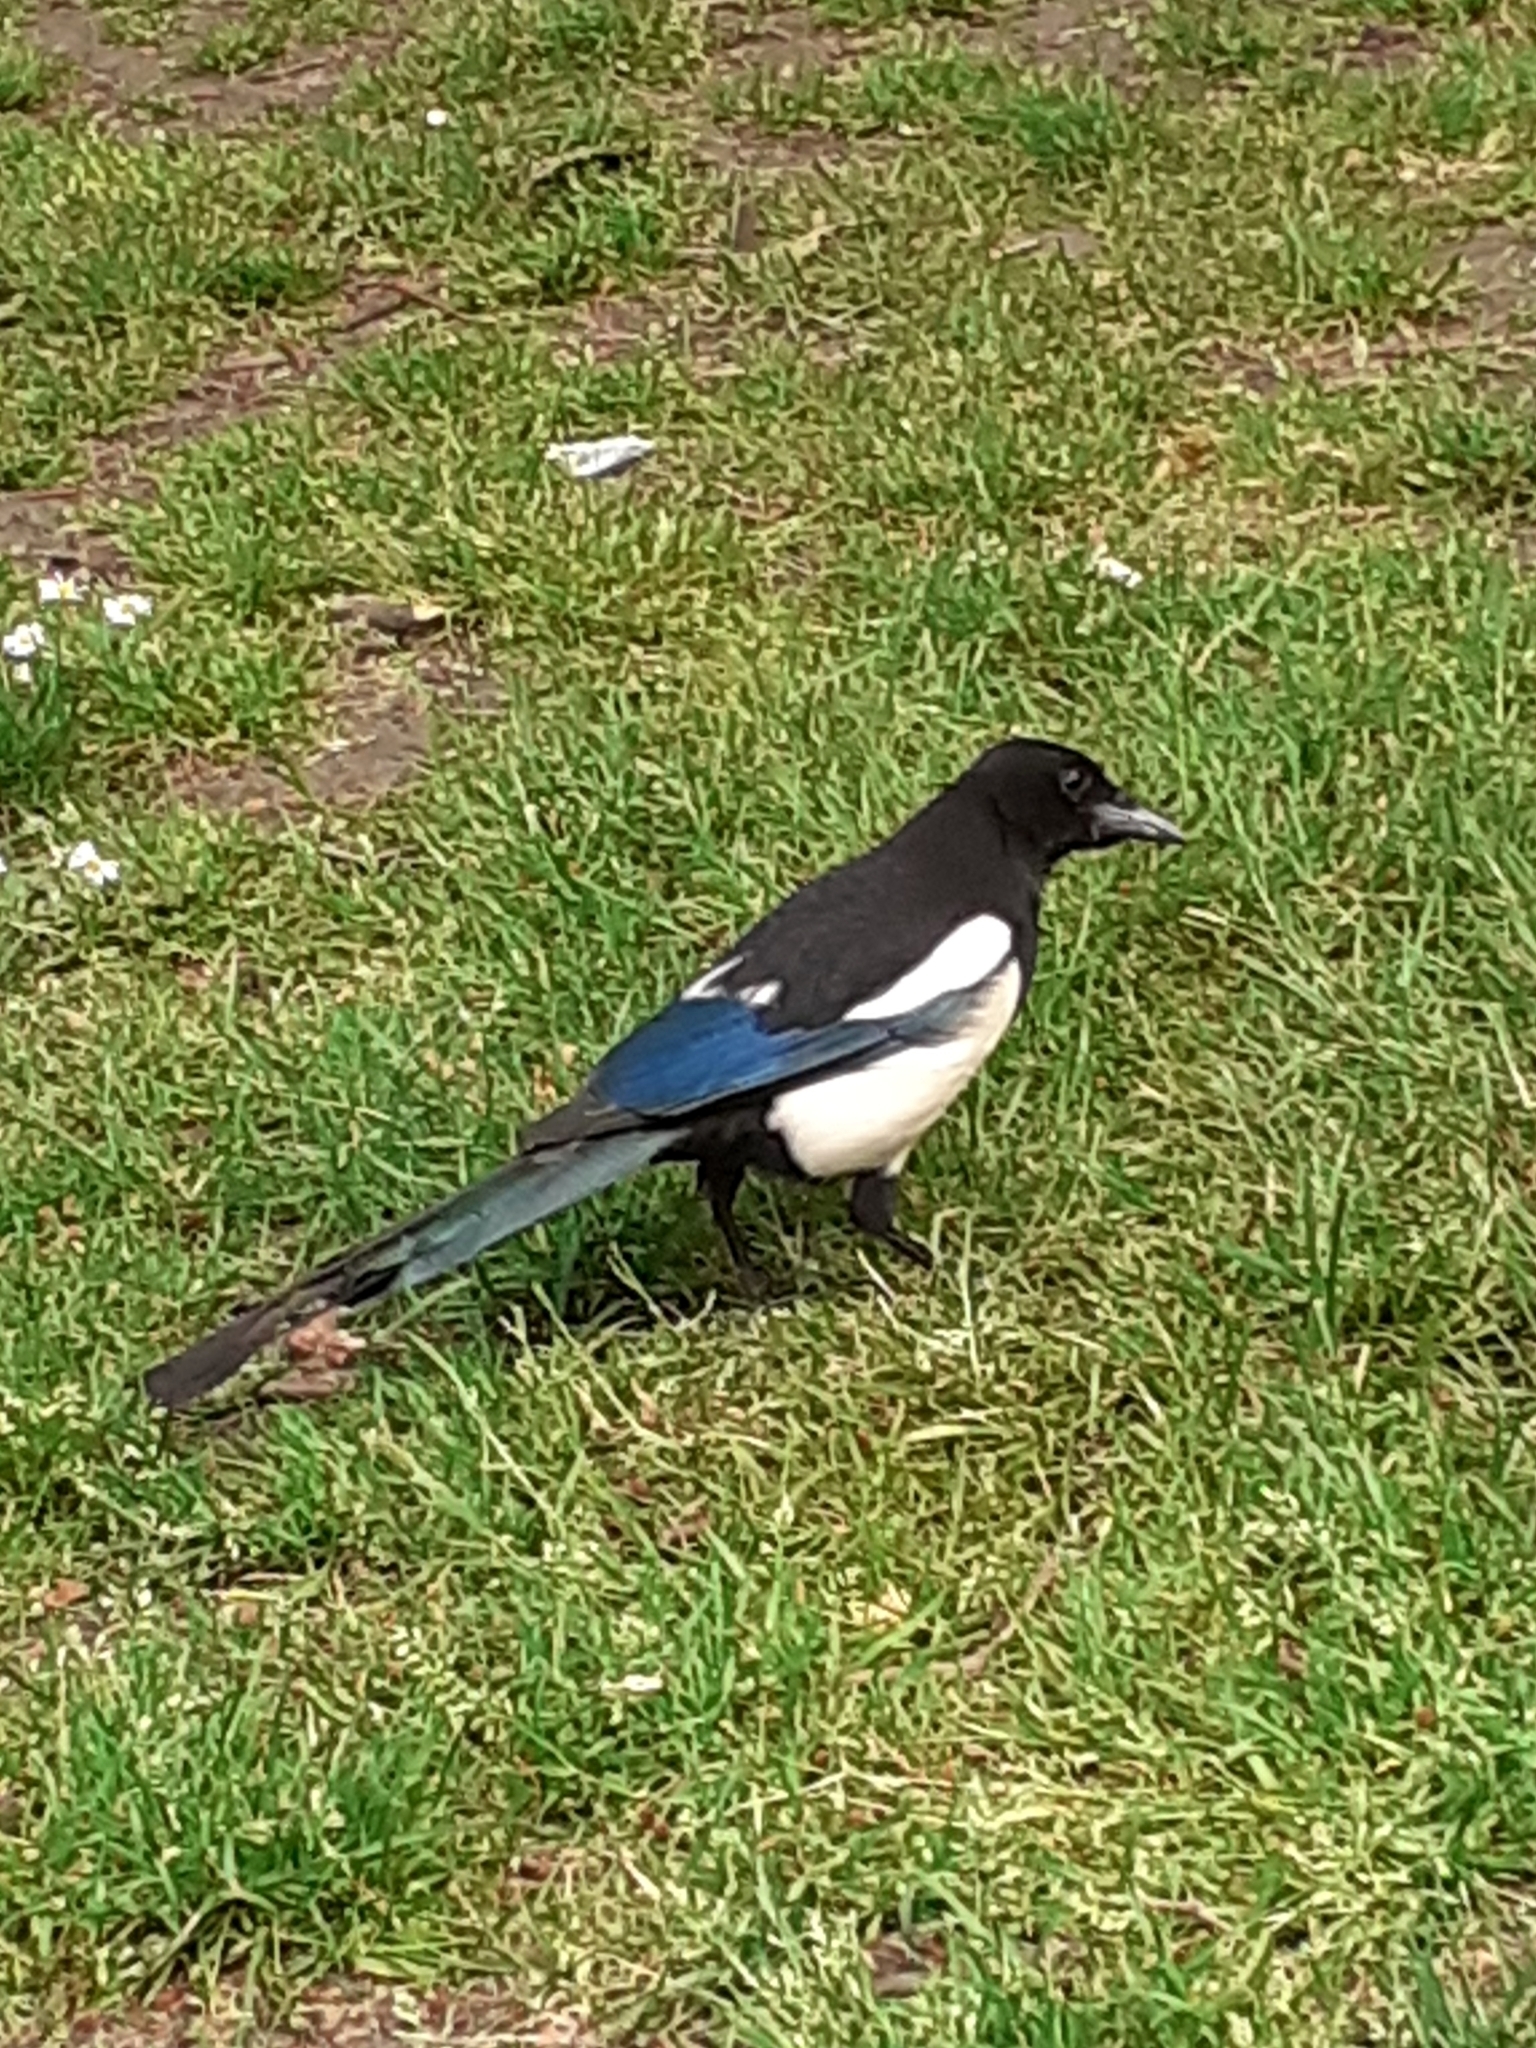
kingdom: Animalia
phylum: Chordata
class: Aves
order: Passeriformes
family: Corvidae
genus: Pica
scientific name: Pica pica
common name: Eurasian magpie
